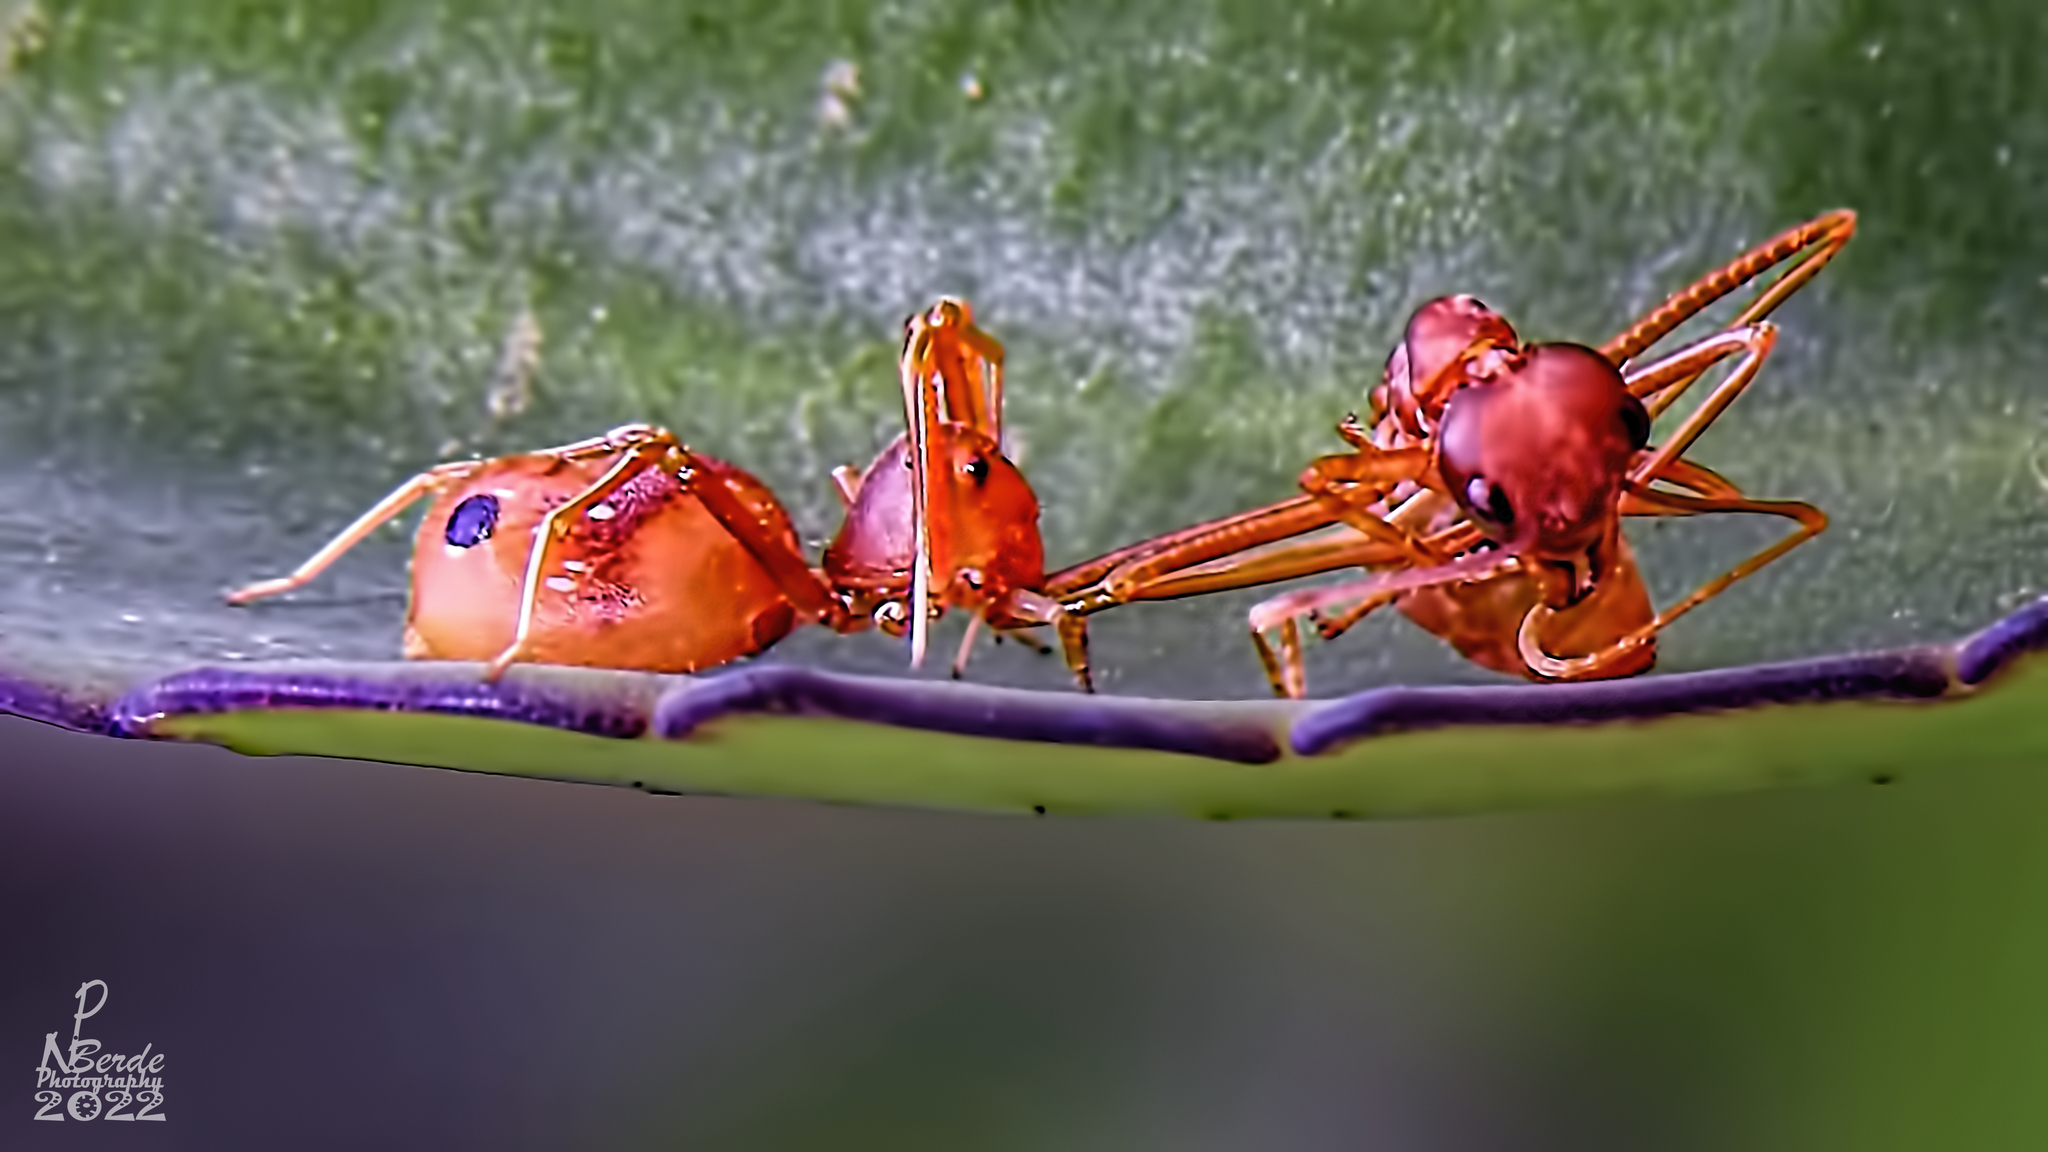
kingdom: Animalia
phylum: Arthropoda
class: Arachnida
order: Araneae
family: Thomisidae
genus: Amyciaea
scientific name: Amyciaea forticeps
